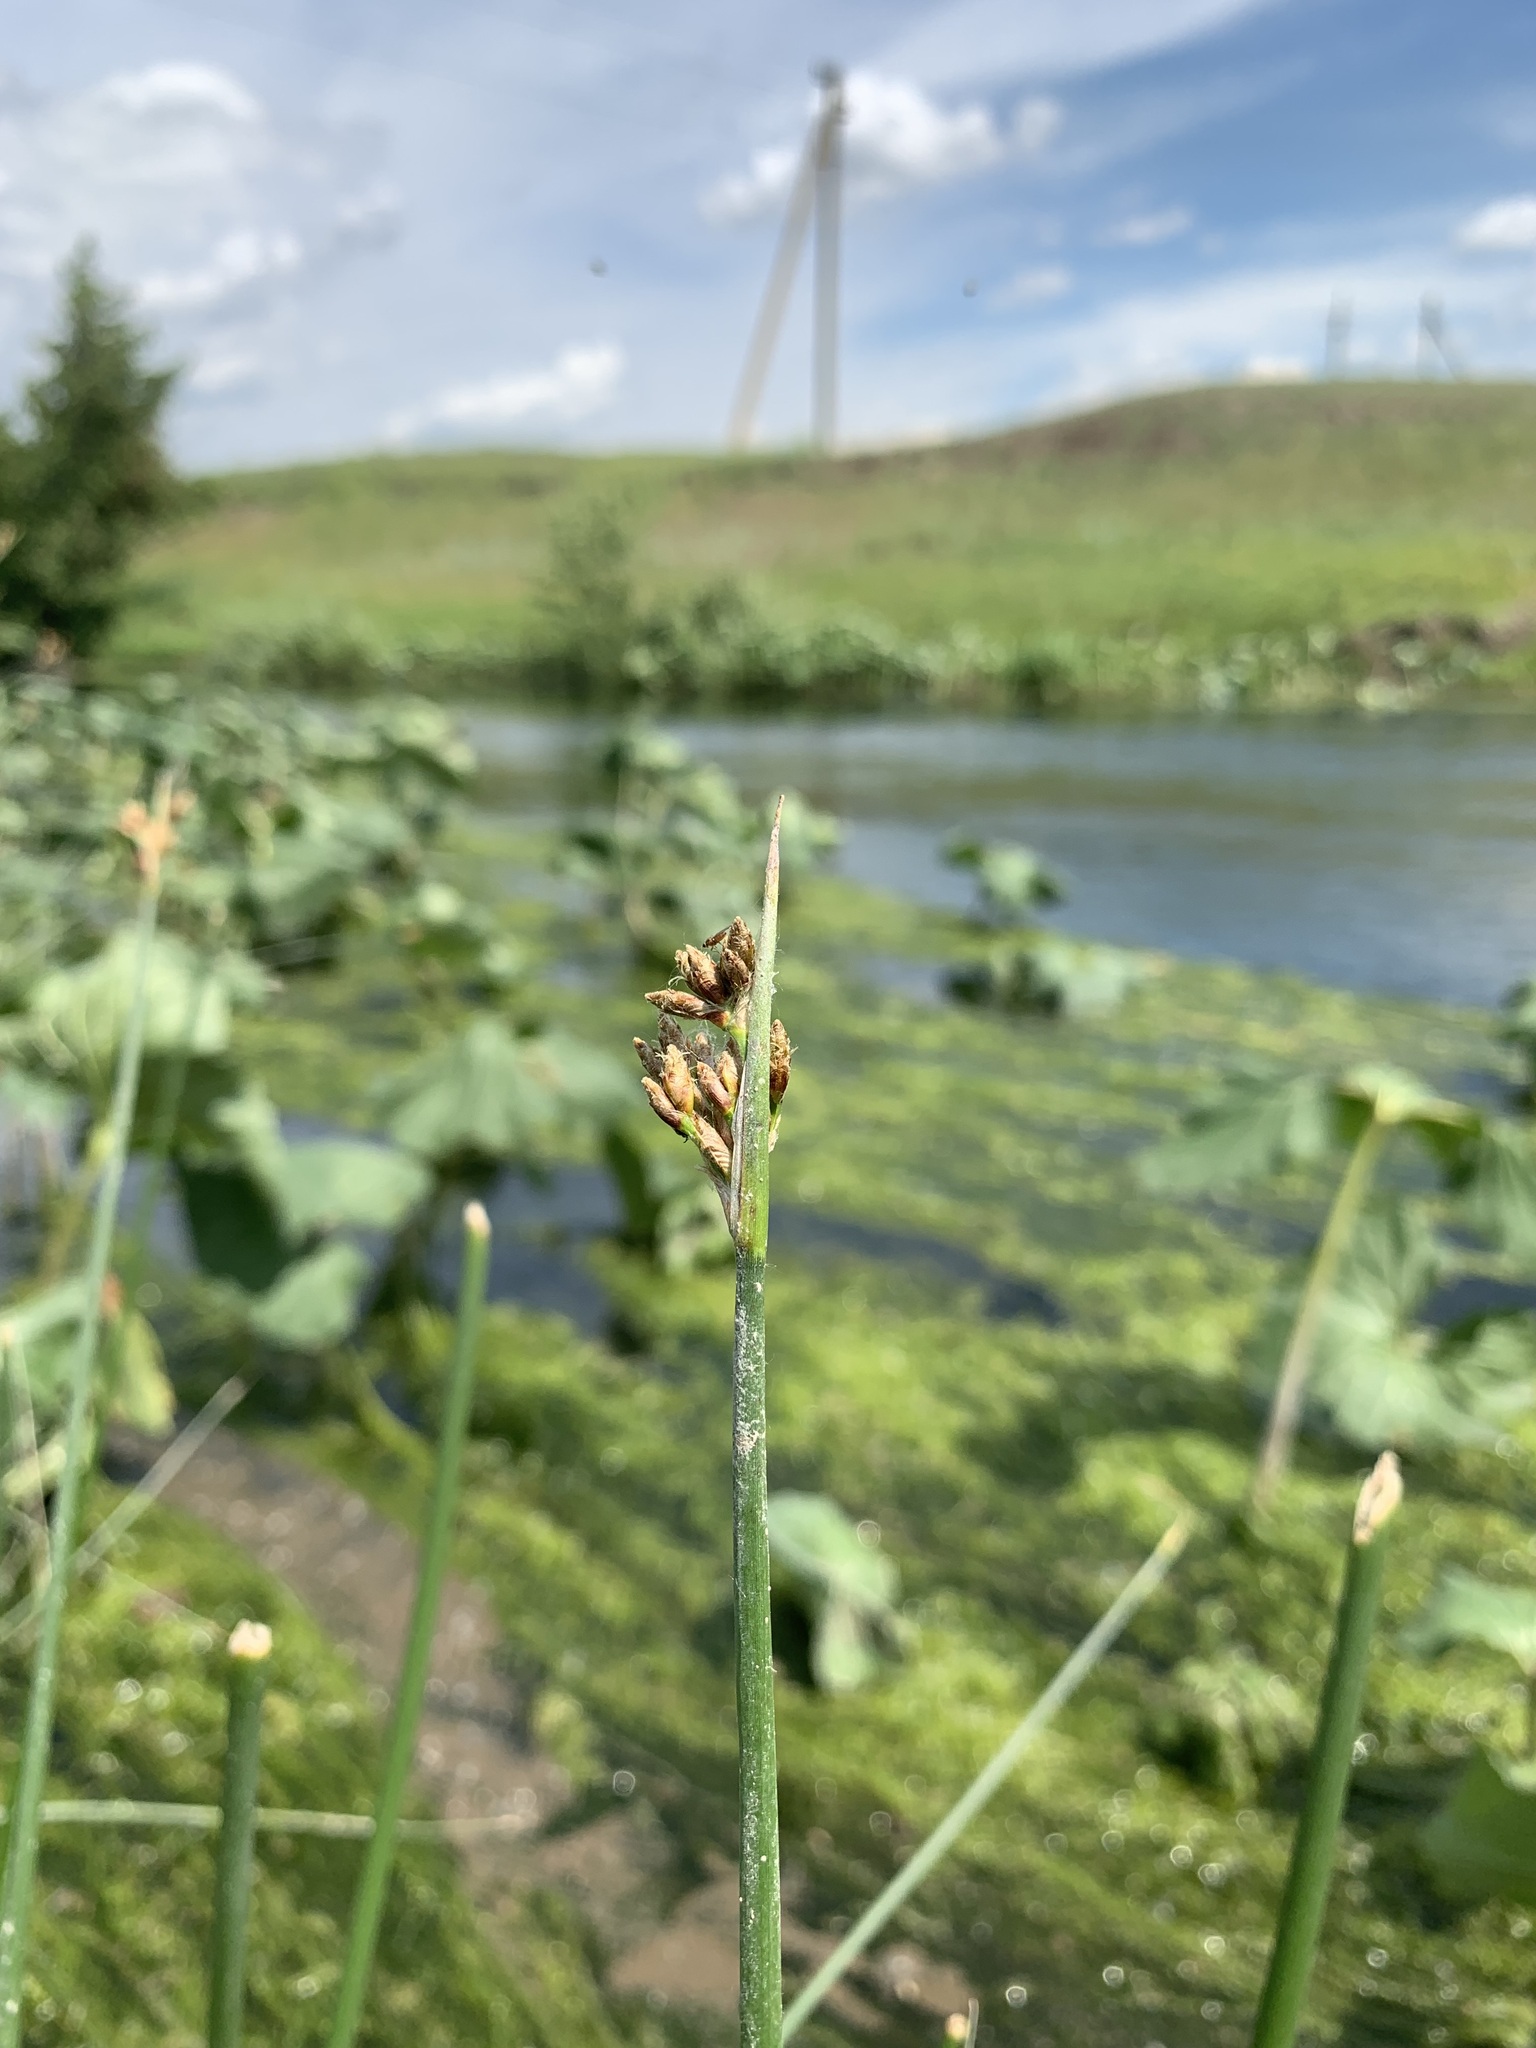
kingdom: Plantae
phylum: Tracheophyta
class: Liliopsida
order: Poales
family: Cyperaceae
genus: Schoenoplectus
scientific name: Schoenoplectus lacustris
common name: Common club-rush
